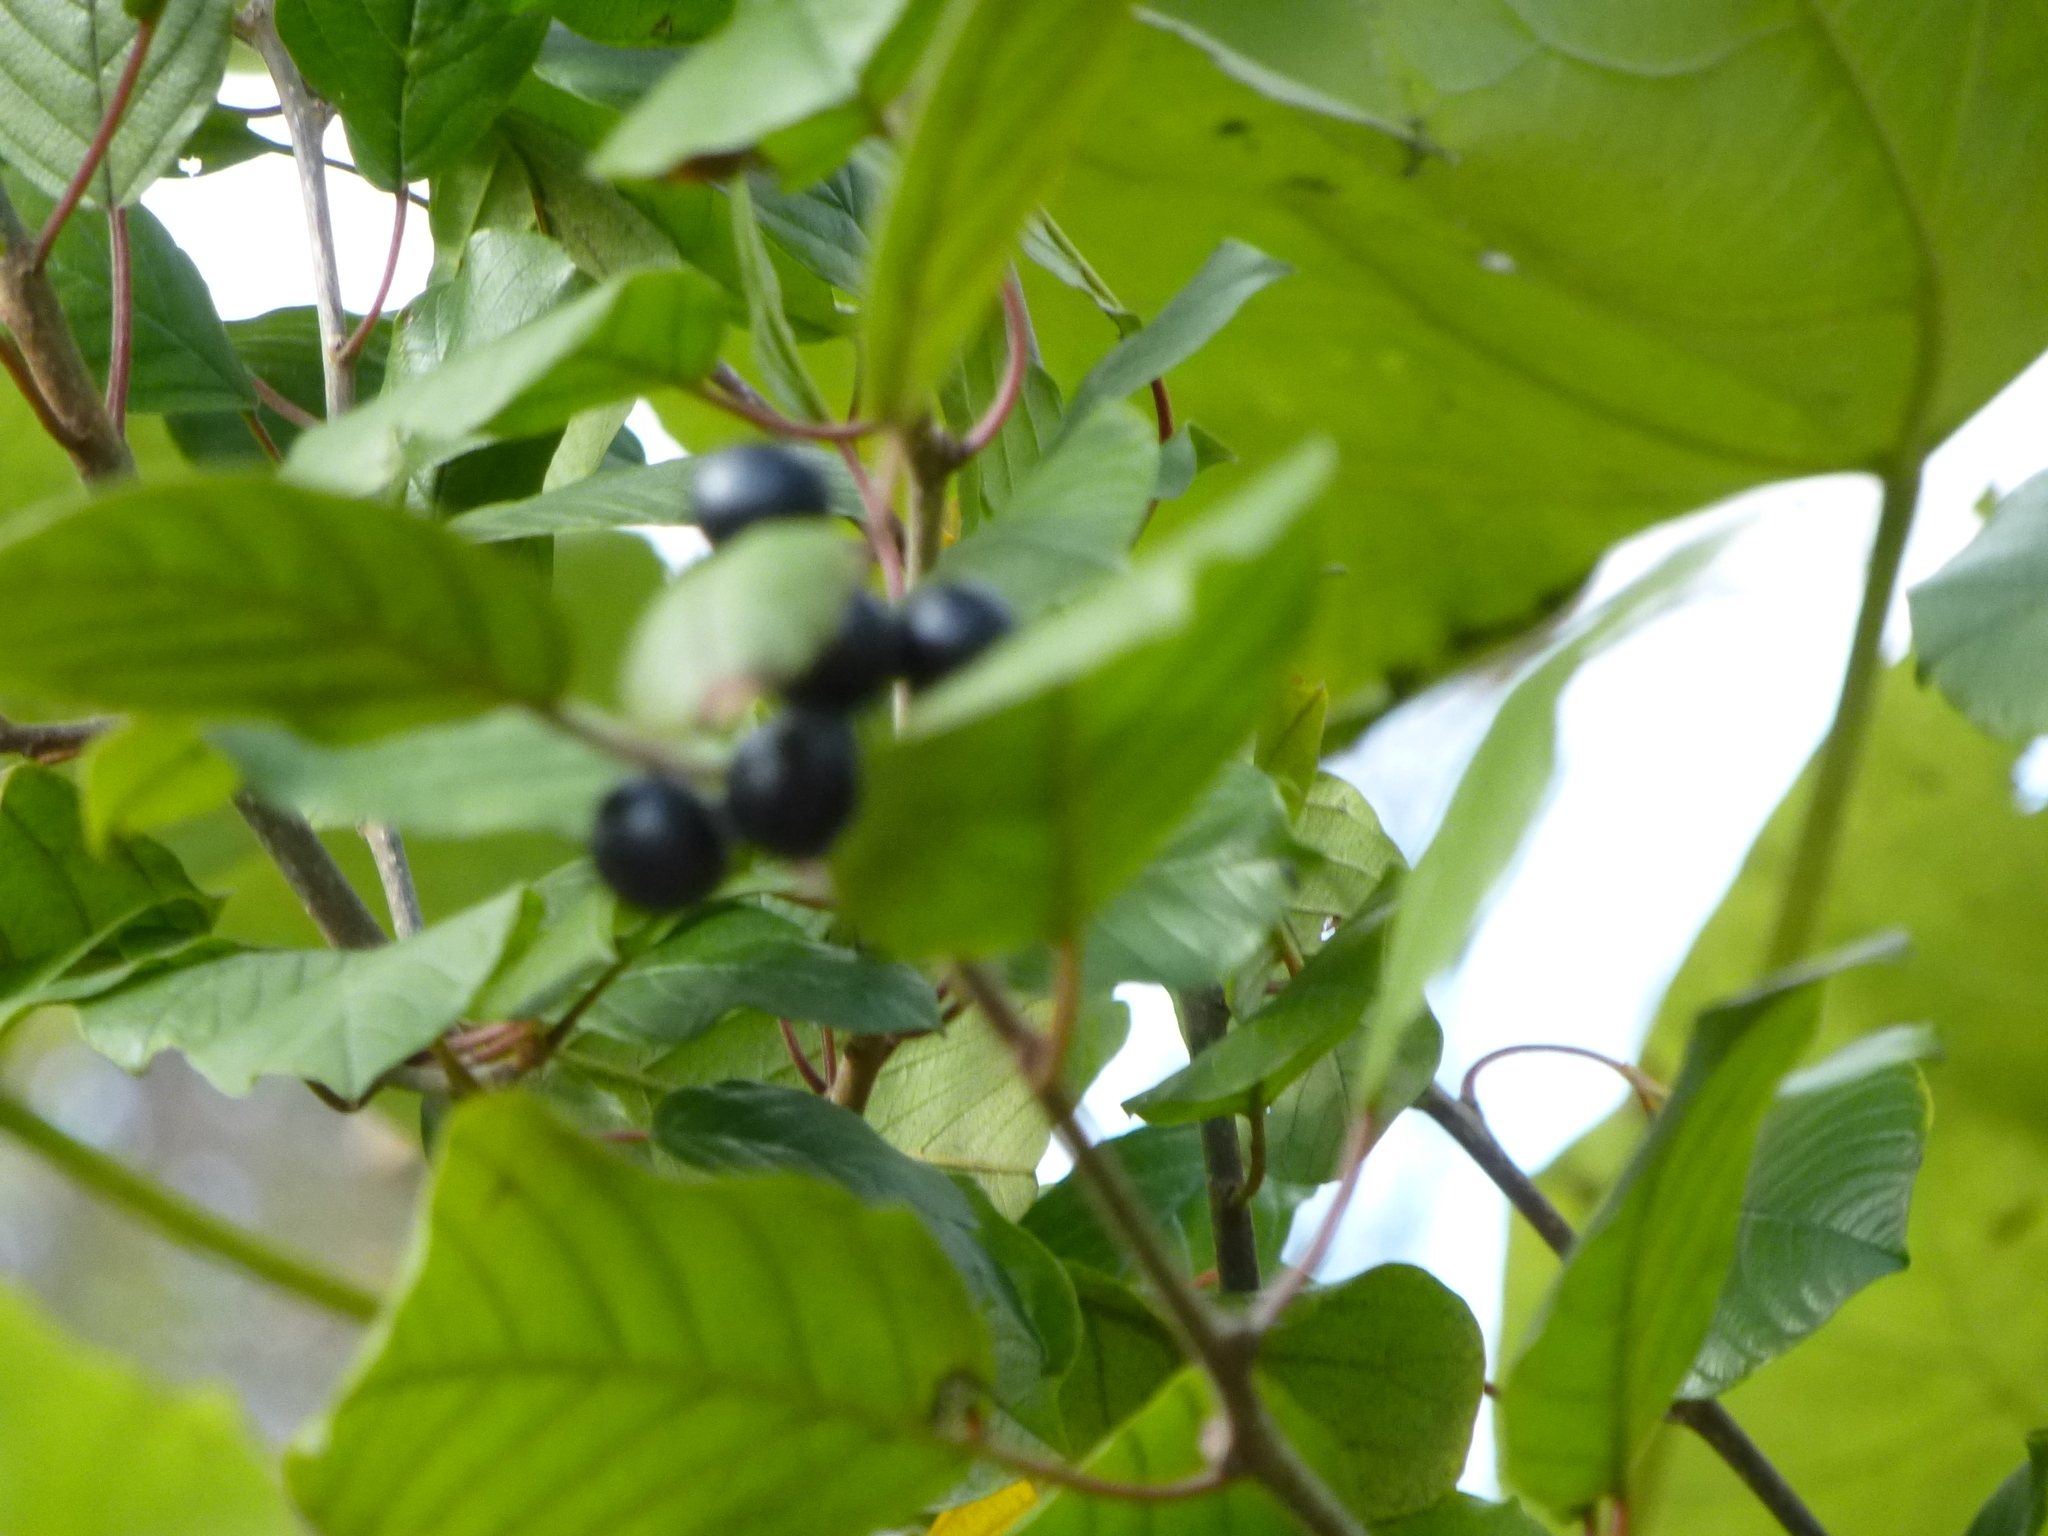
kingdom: Plantae
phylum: Tracheophyta
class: Magnoliopsida
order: Rosales
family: Rhamnaceae
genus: Frangula
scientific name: Frangula alnus
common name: Alder buckthorn
